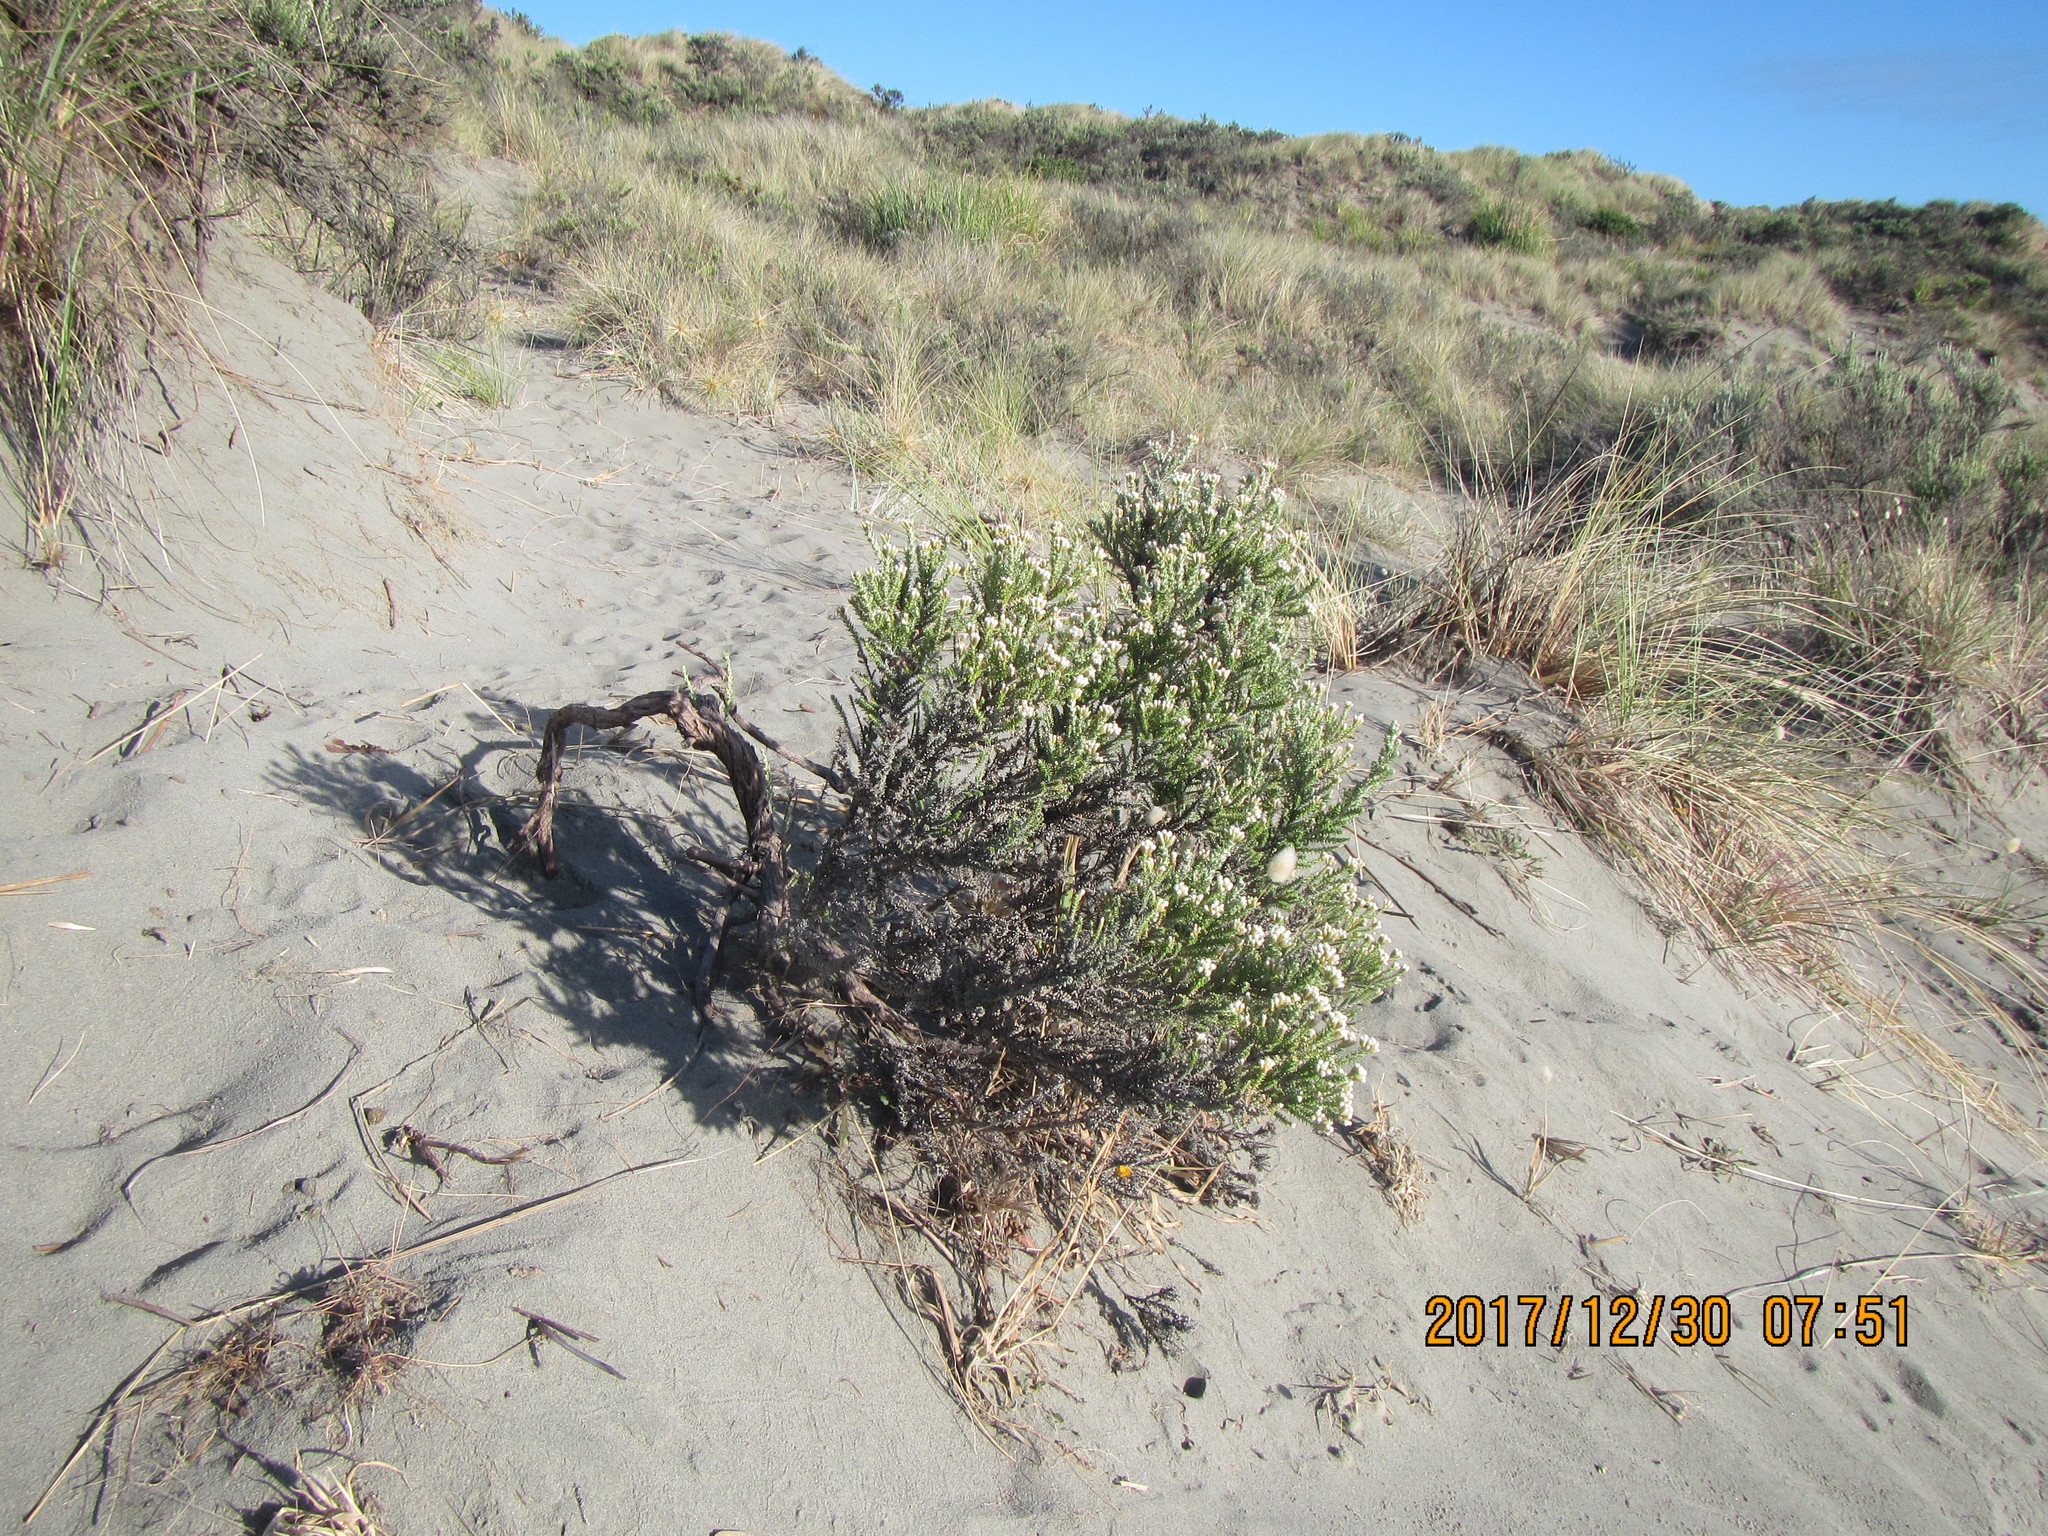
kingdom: Plantae
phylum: Tracheophyta
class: Magnoliopsida
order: Asterales
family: Asteraceae
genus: Ozothamnus
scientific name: Ozothamnus leptophyllus
